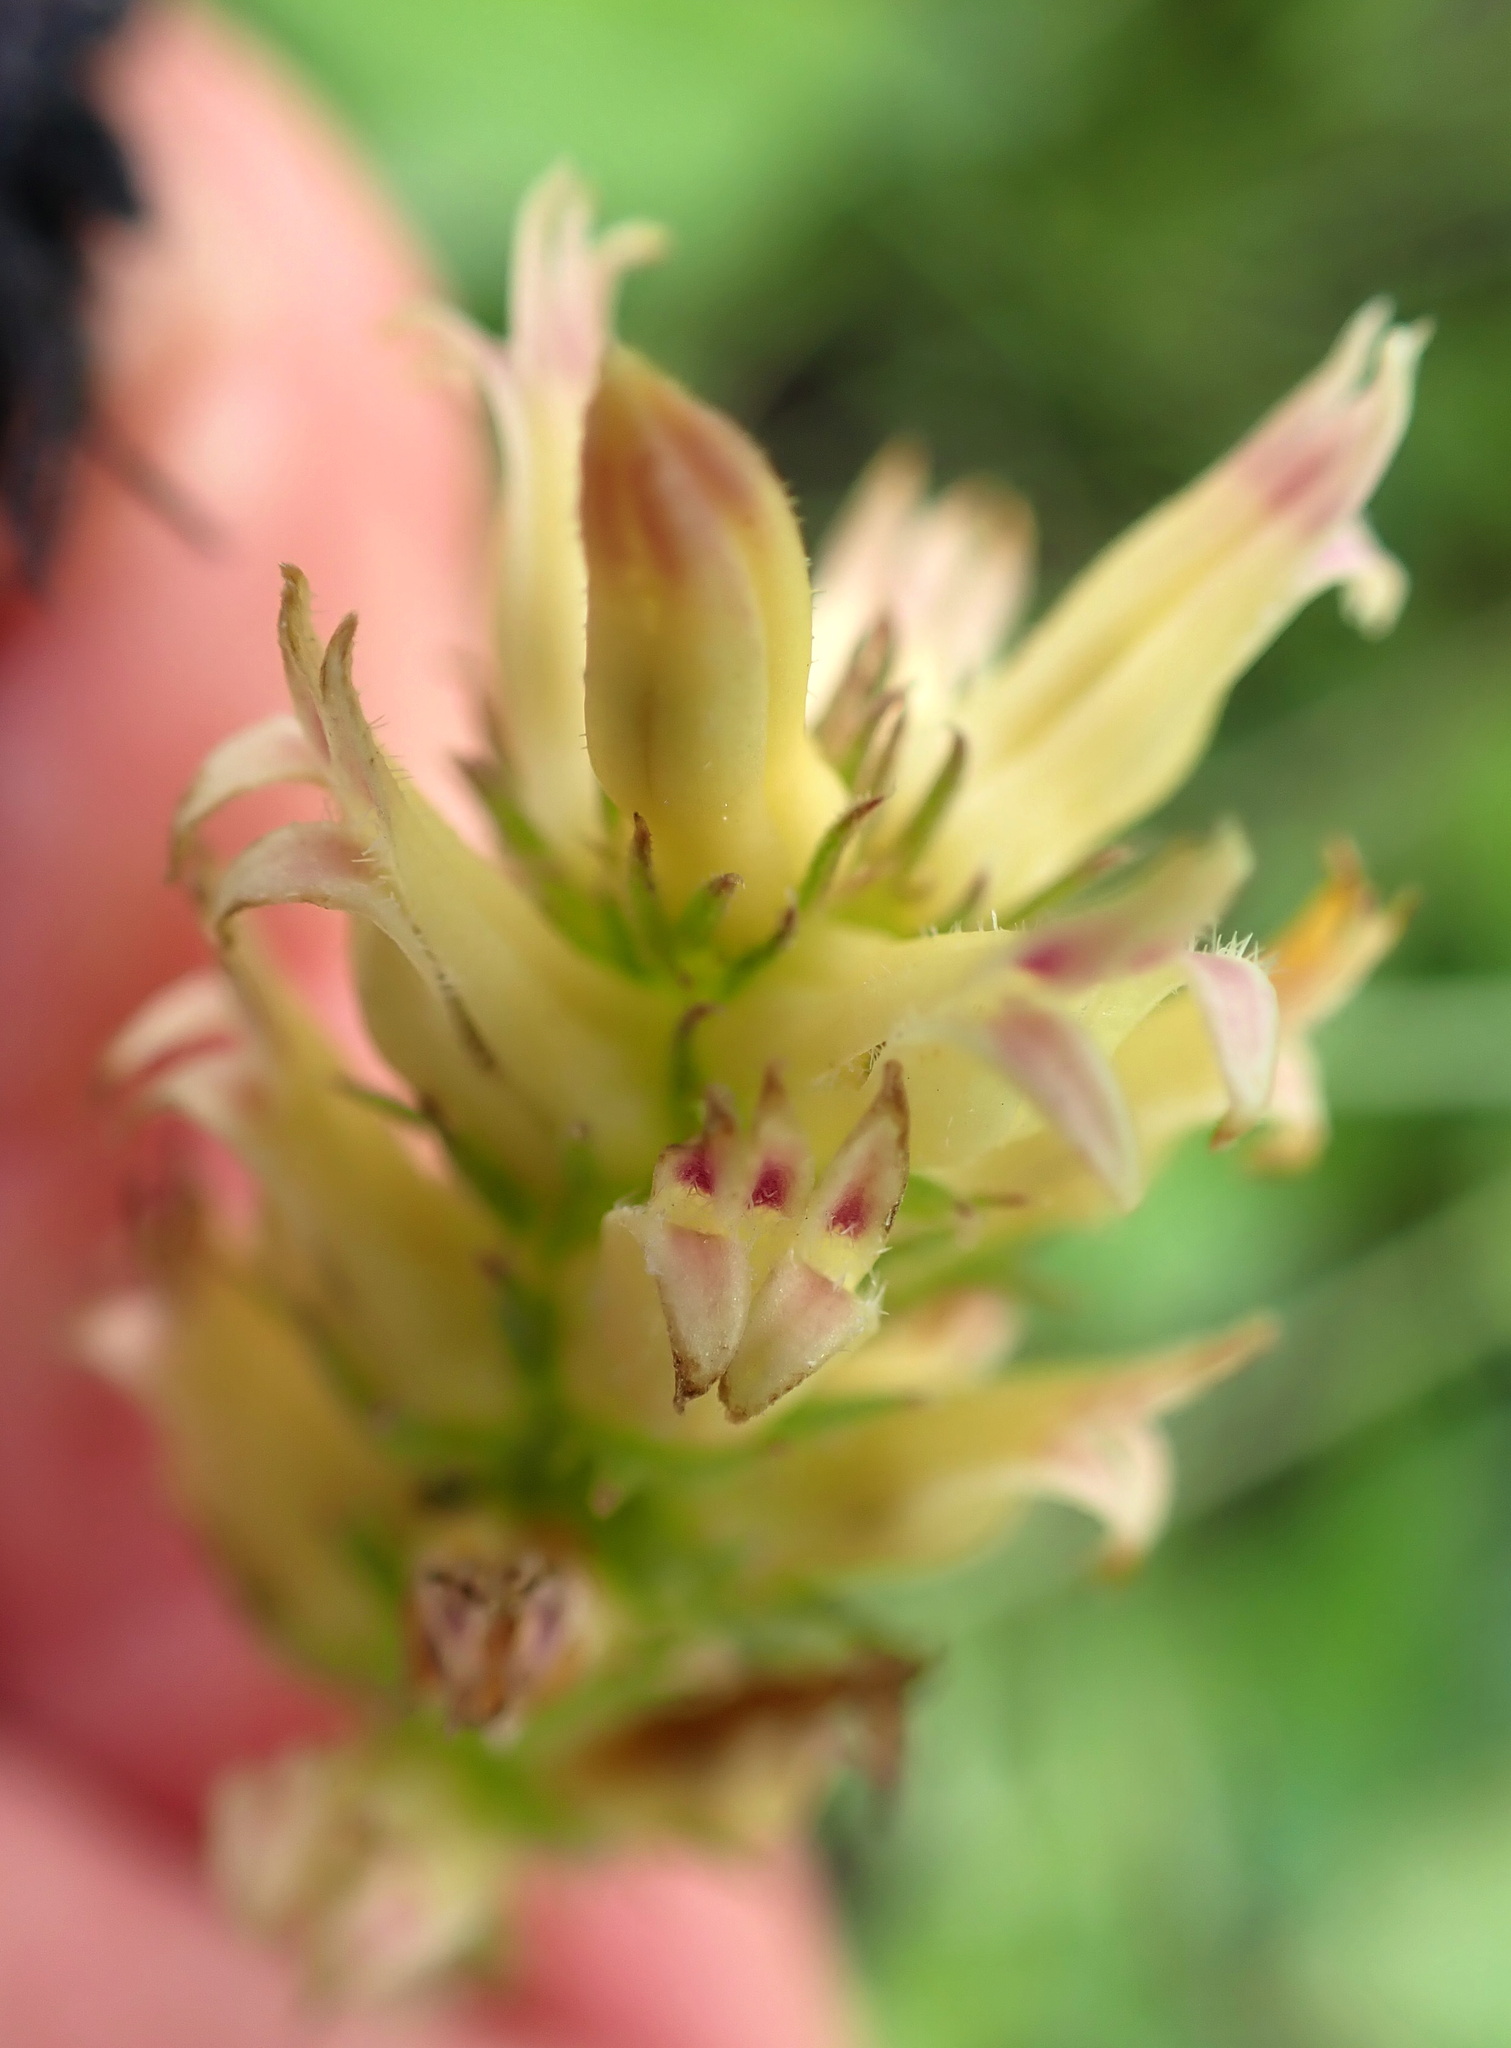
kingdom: Plantae
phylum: Tracheophyta
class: Magnoliopsida
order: Asterales
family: Campanulaceae
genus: Cyphia
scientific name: Cyphia elata
